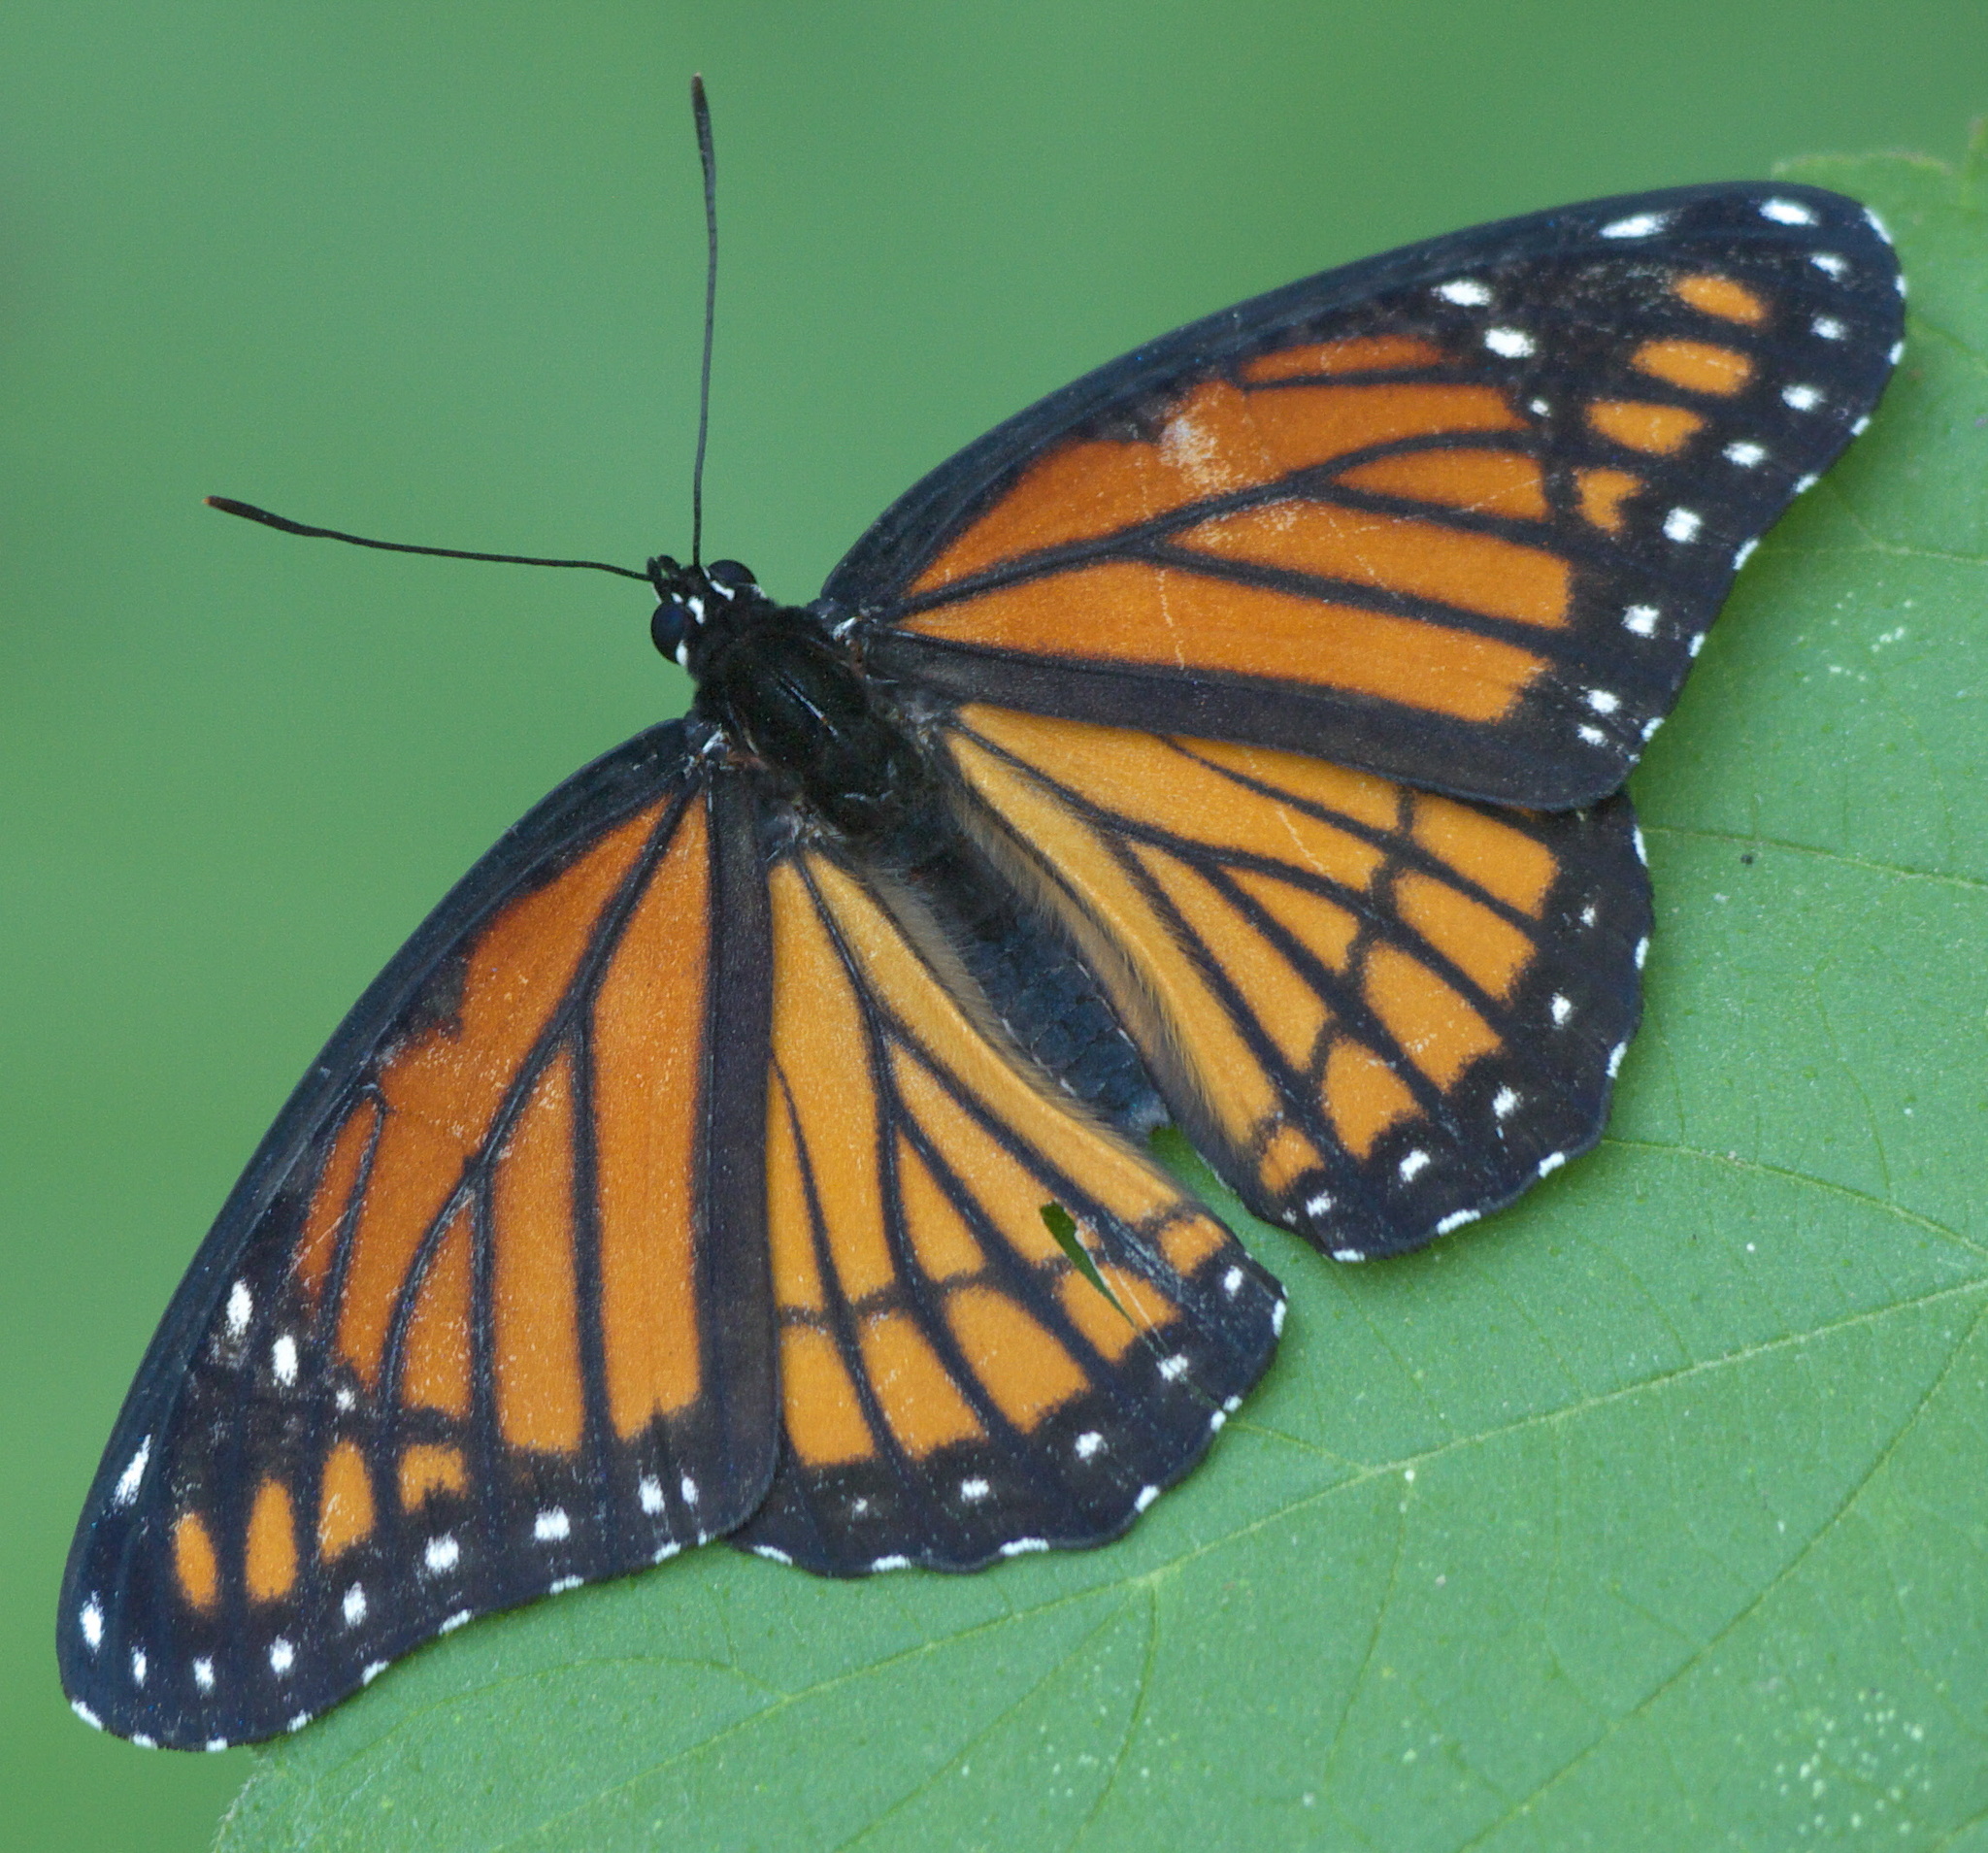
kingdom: Animalia
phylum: Arthropoda
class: Insecta
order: Lepidoptera
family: Nymphalidae
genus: Limenitis
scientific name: Limenitis archippus
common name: Viceroy
